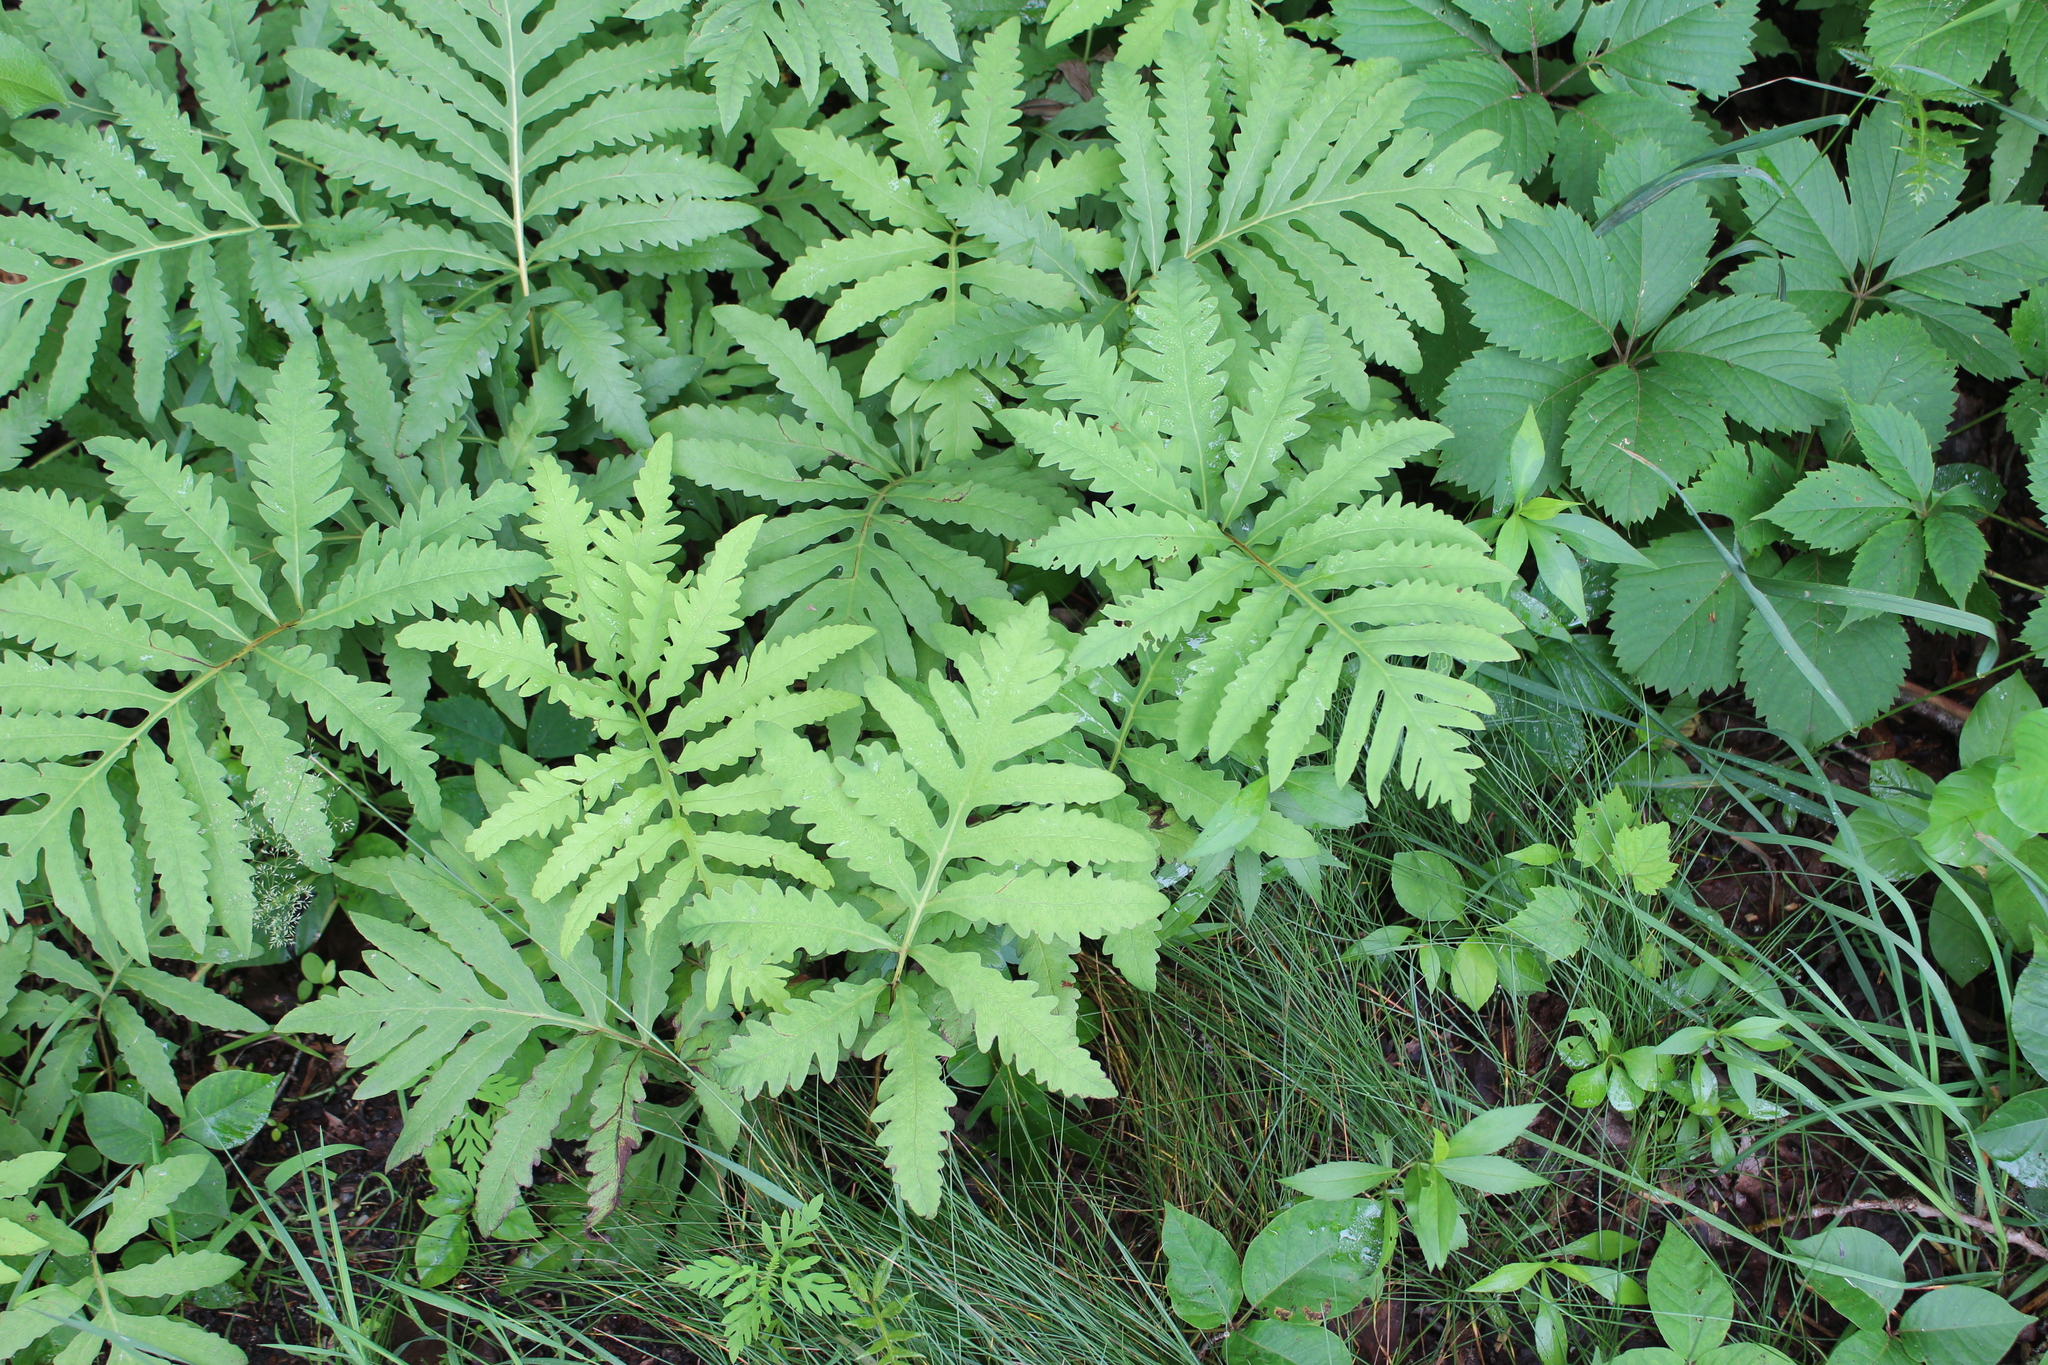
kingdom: Plantae
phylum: Tracheophyta
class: Polypodiopsida
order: Polypodiales
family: Onocleaceae
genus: Onoclea
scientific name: Onoclea sensibilis
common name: Sensitive fern
